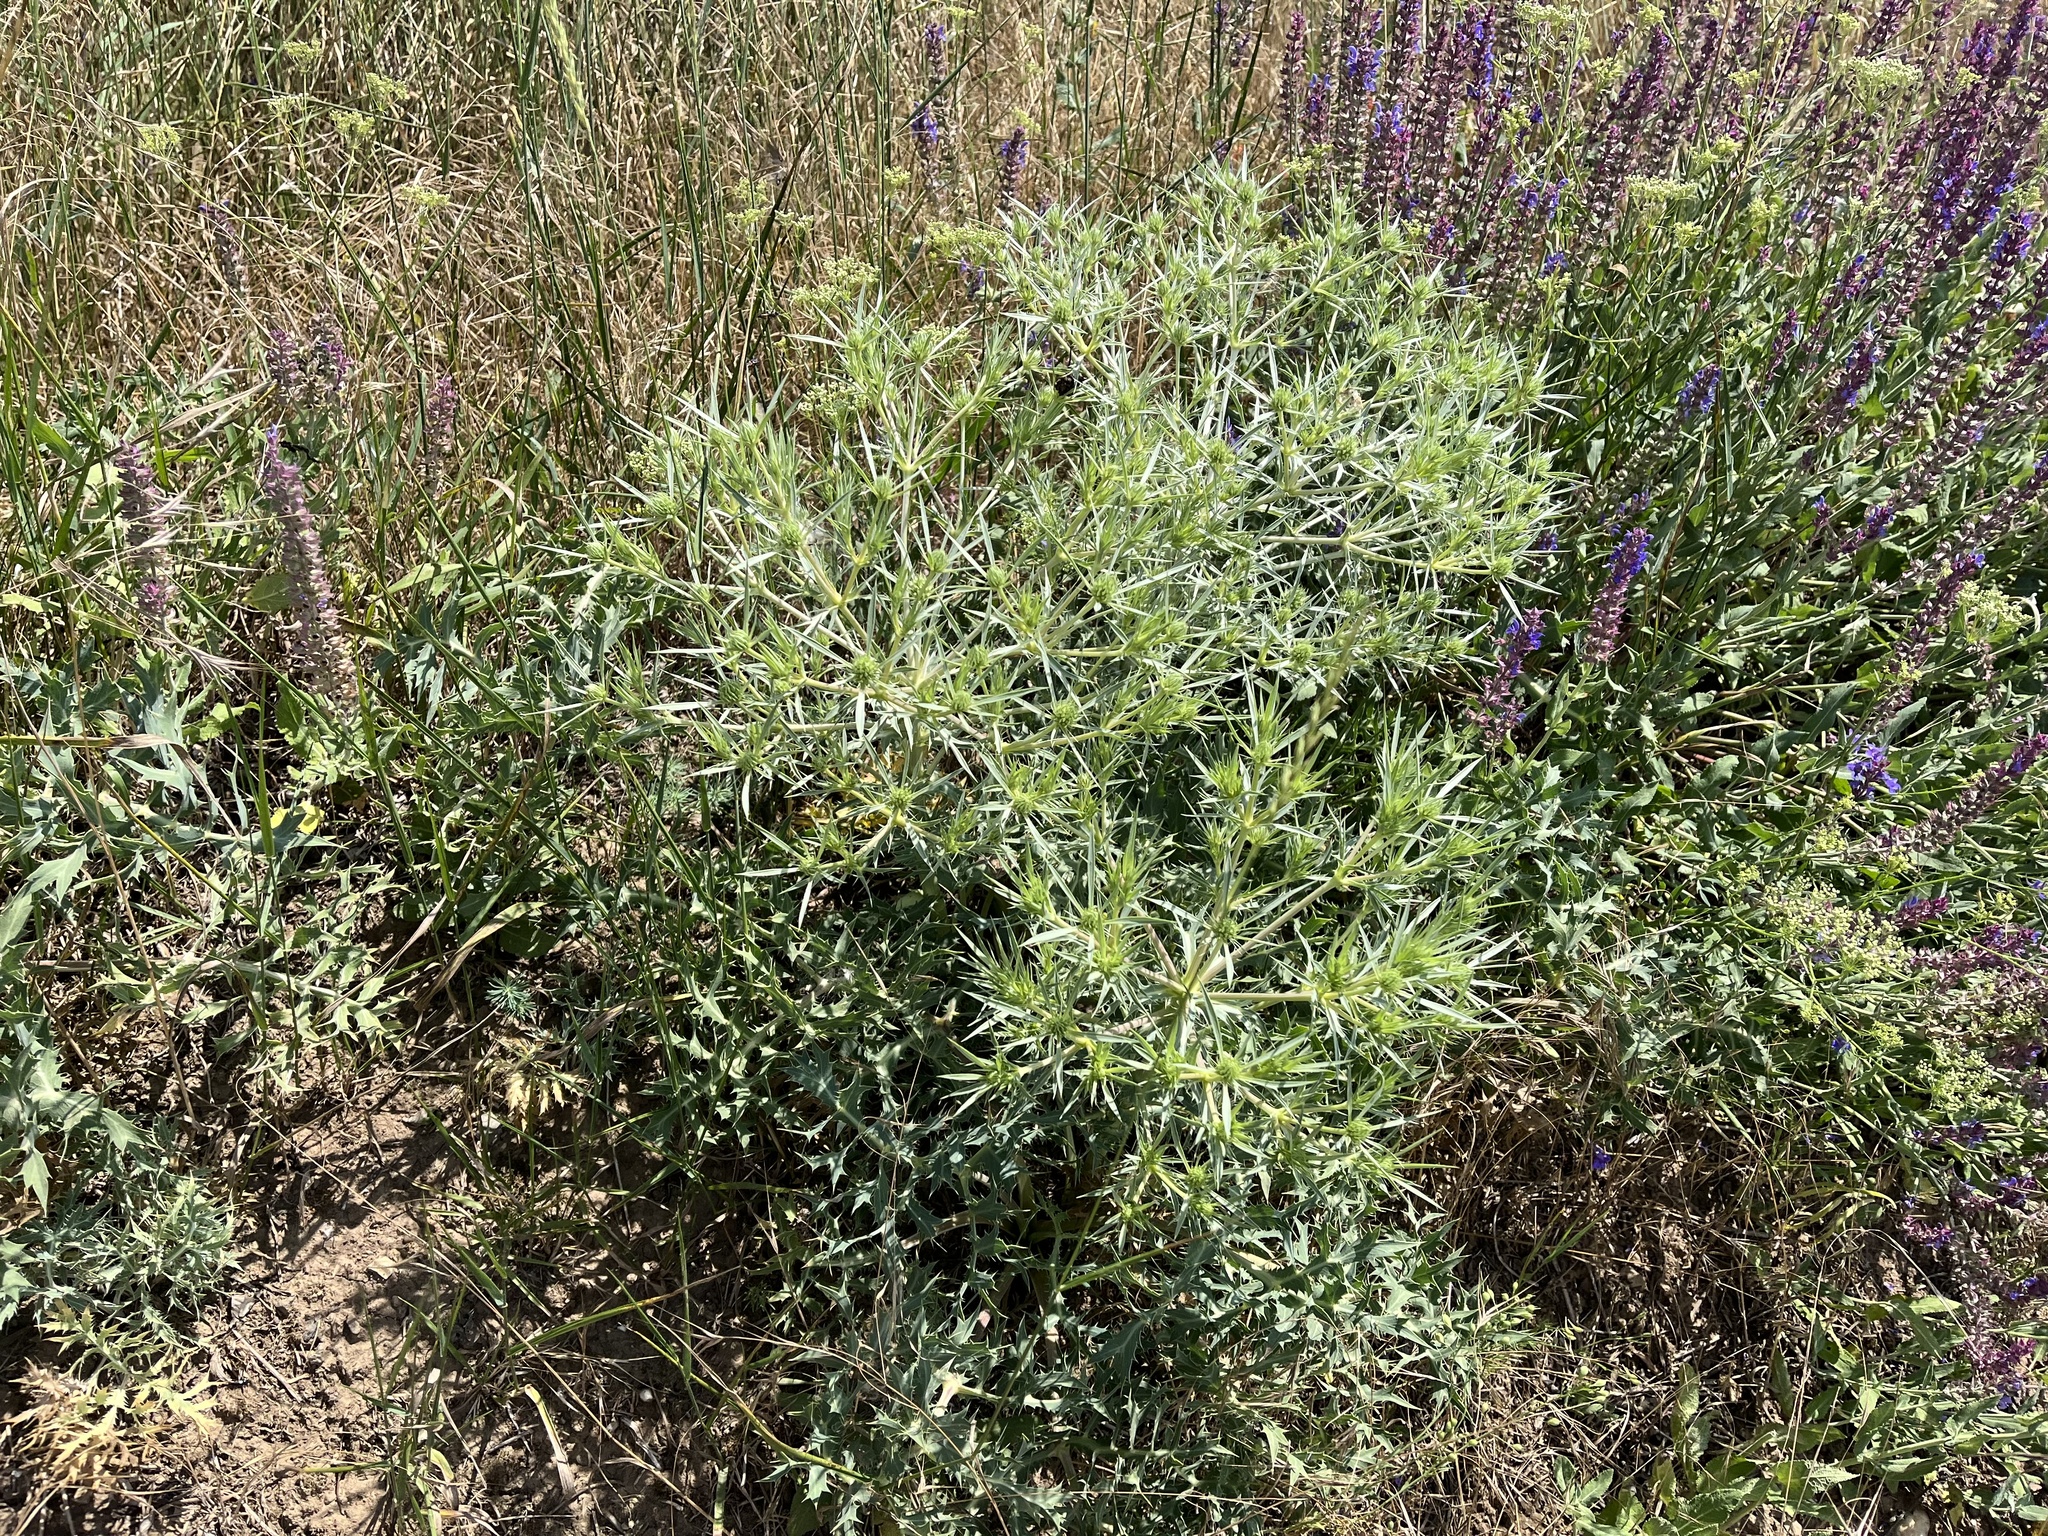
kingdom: Plantae
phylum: Tracheophyta
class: Magnoliopsida
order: Apiales
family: Apiaceae
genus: Eryngium
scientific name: Eryngium campestre
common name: Field eryngo
